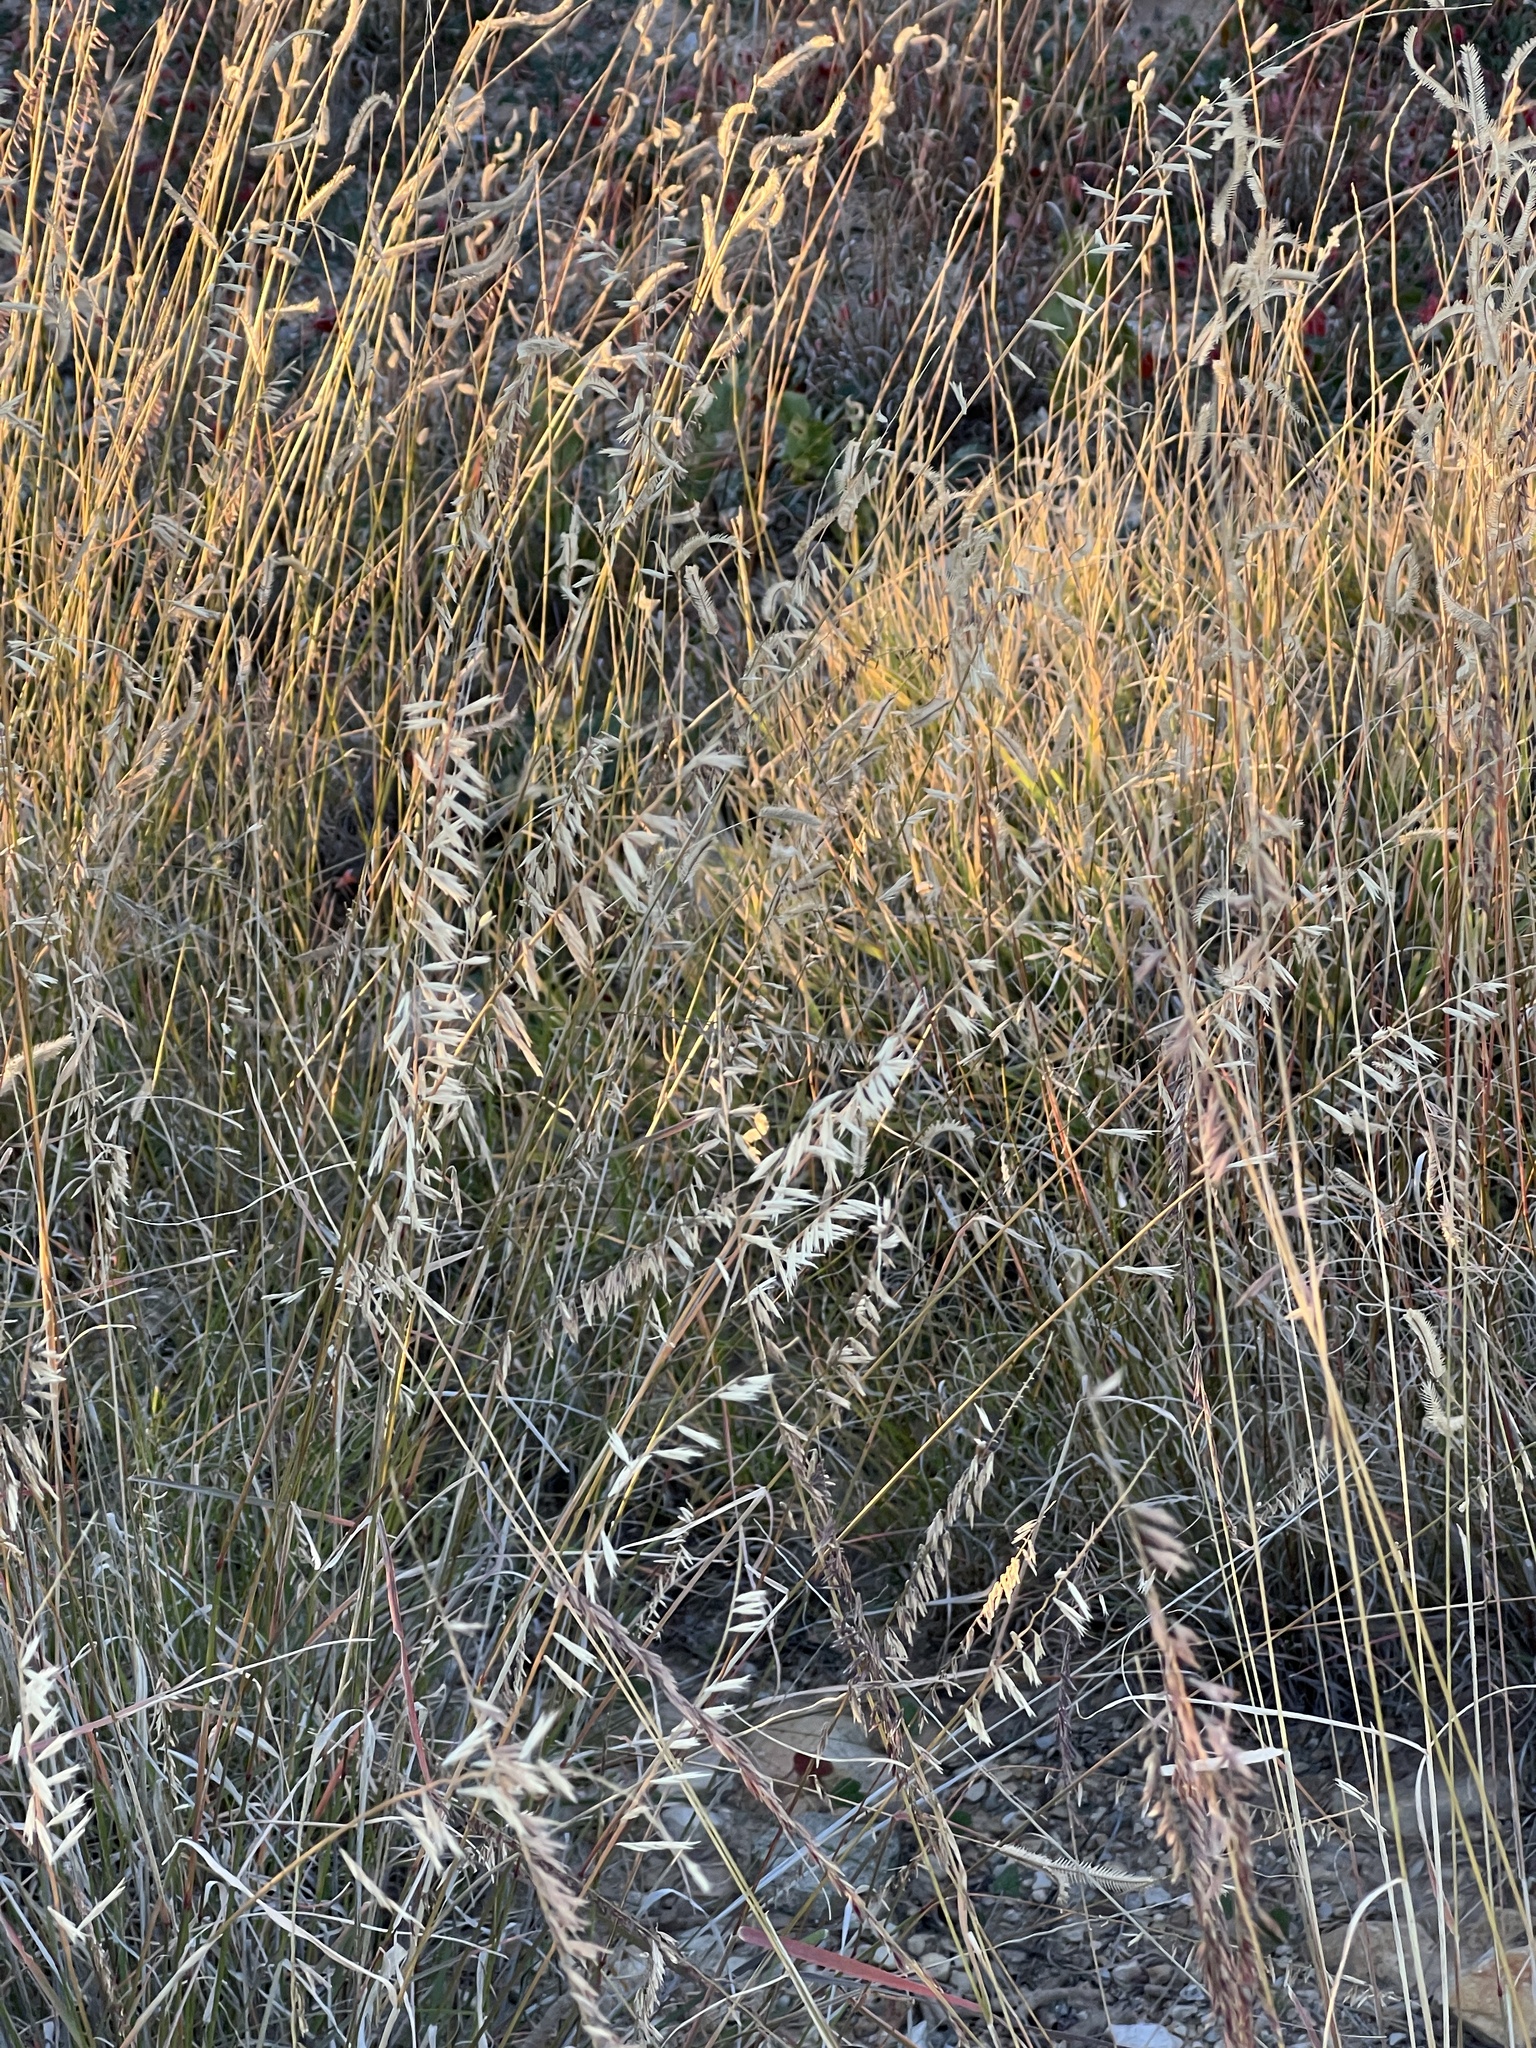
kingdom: Plantae
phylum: Tracheophyta
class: Liliopsida
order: Poales
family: Poaceae
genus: Bouteloua
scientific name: Bouteloua curtipendula
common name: Side-oats grama
